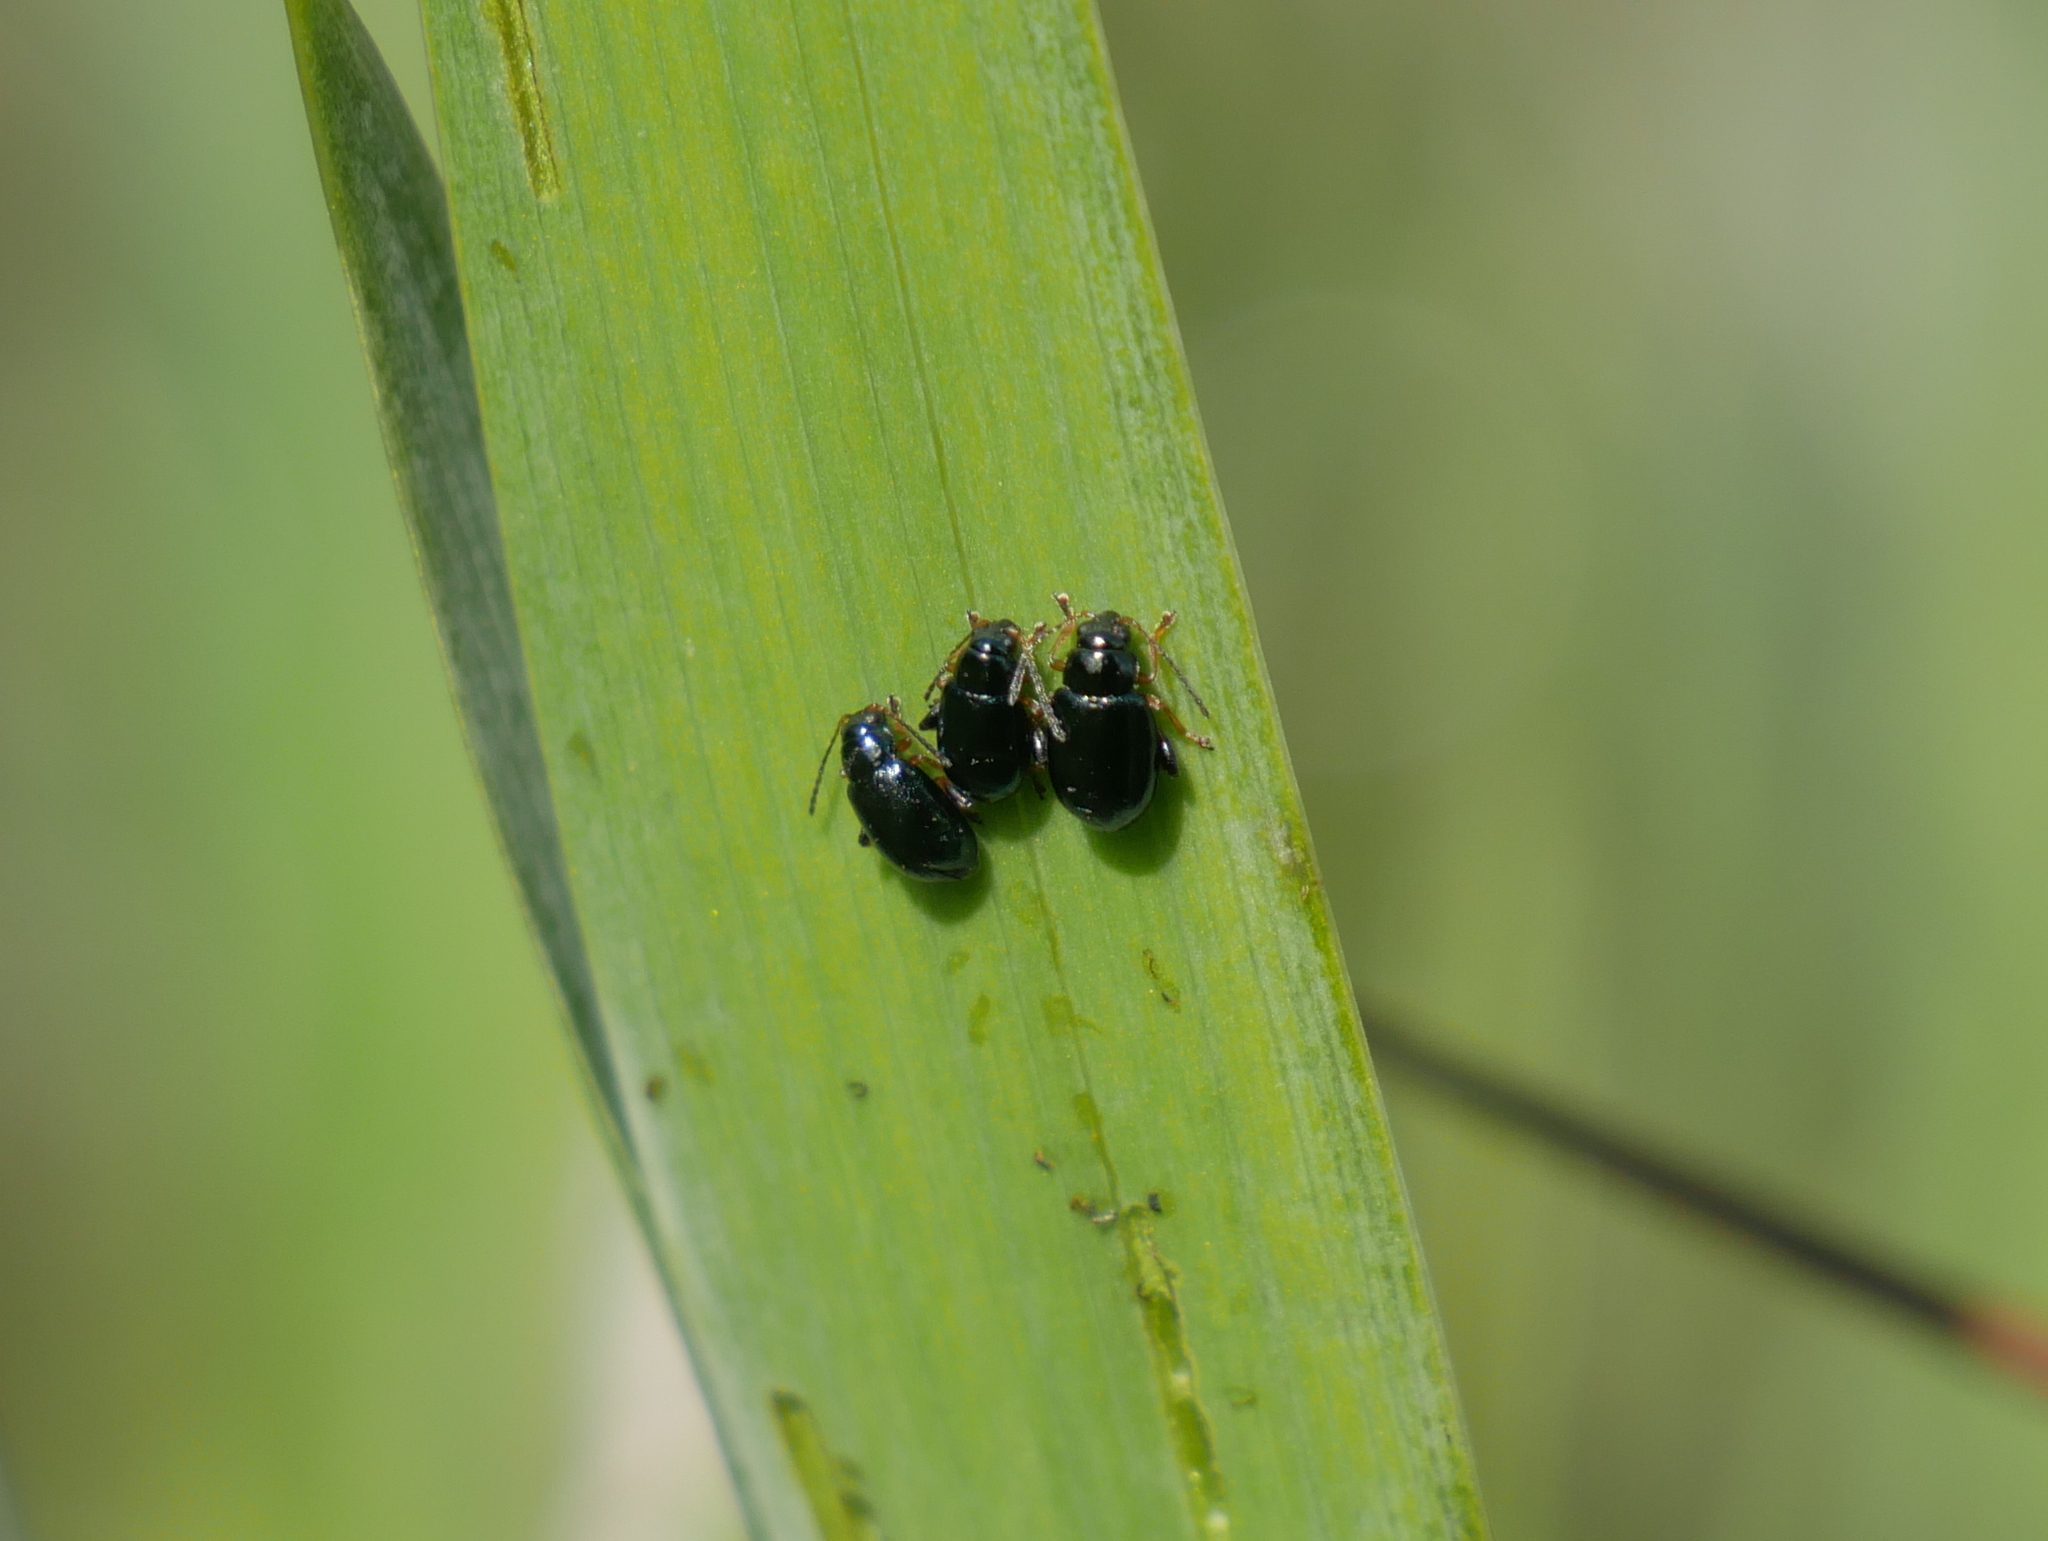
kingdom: Animalia
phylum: Arthropoda
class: Insecta
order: Coleoptera
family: Chrysomelidae
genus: Aphthona
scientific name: Aphthona nonstriata
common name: Iris flea beetle
